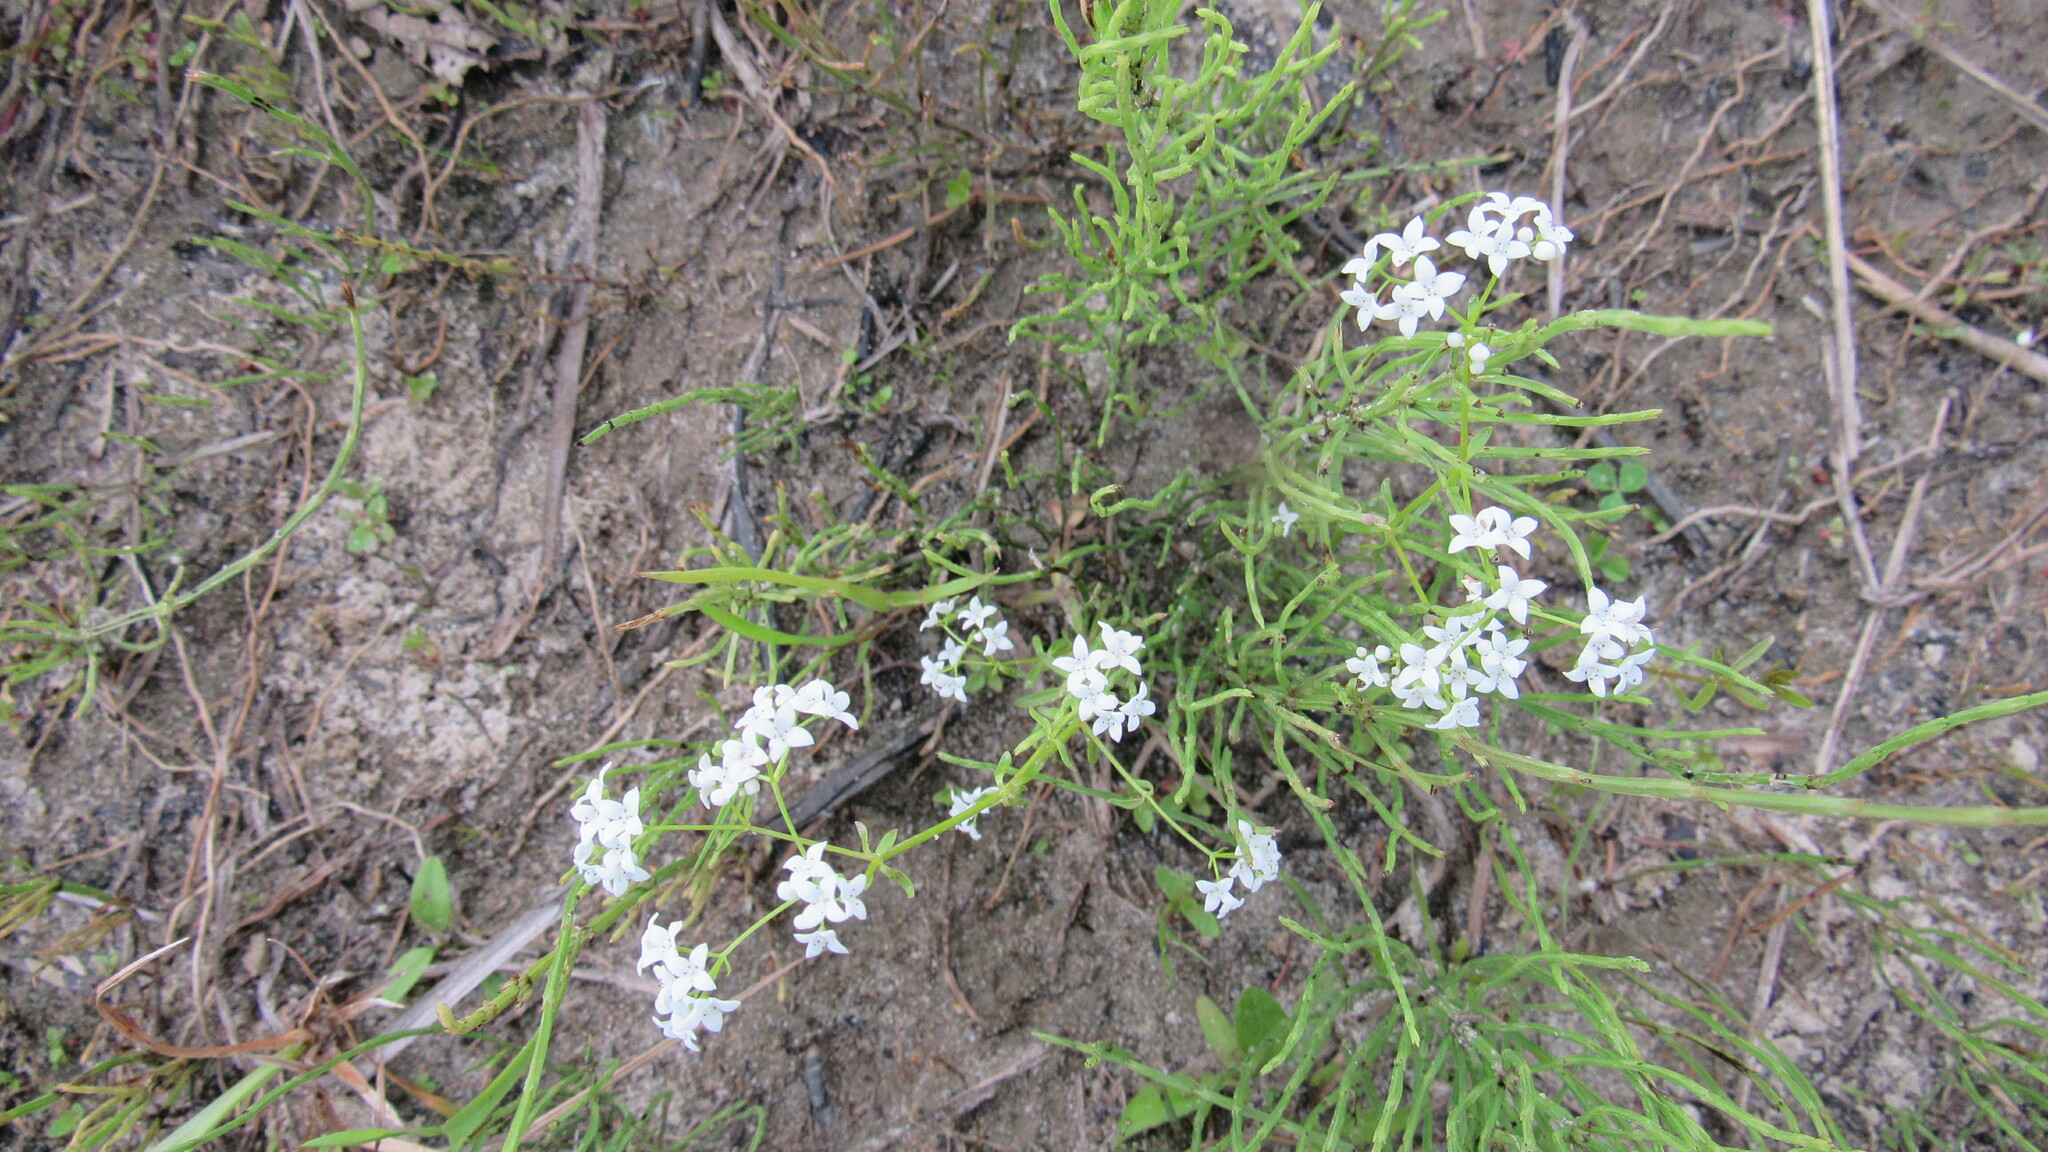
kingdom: Plantae
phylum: Tracheophyta
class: Magnoliopsida
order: Gentianales
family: Rubiaceae
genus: Galium
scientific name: Galium palustre
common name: Common marsh-bedstraw
